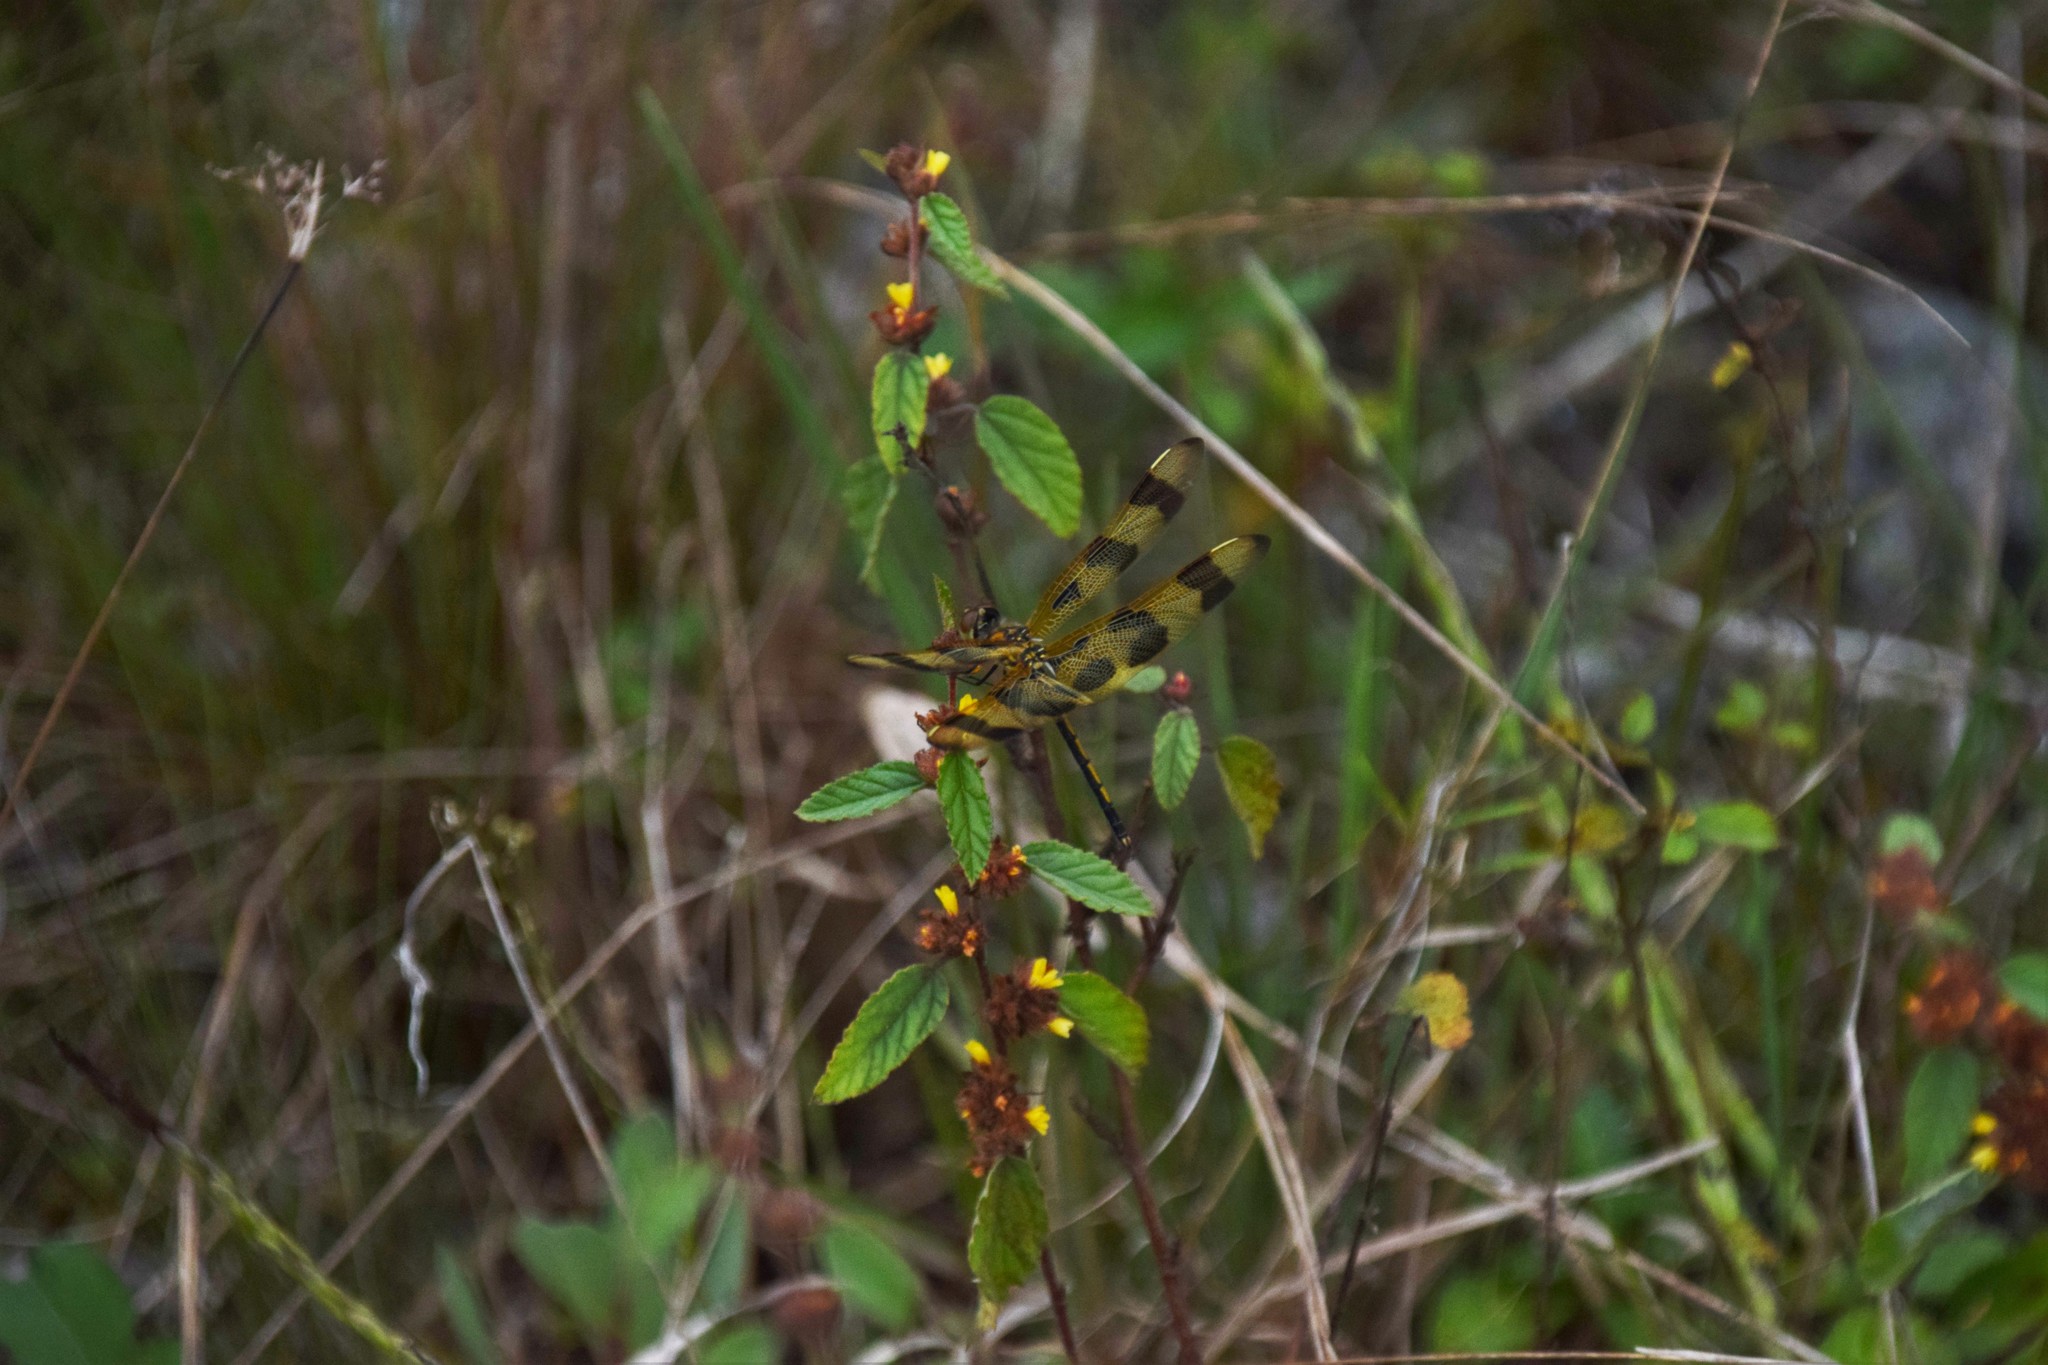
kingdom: Animalia
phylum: Arthropoda
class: Insecta
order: Odonata
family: Libellulidae
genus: Celithemis
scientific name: Celithemis eponina
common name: Halloween pennant
